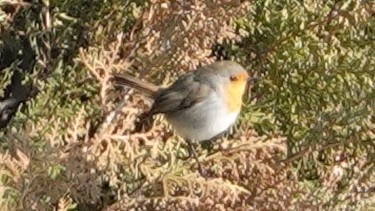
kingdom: Animalia
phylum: Chordata
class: Aves
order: Passeriformes
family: Muscicapidae
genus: Erithacus
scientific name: Erithacus rubecula
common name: European robin
